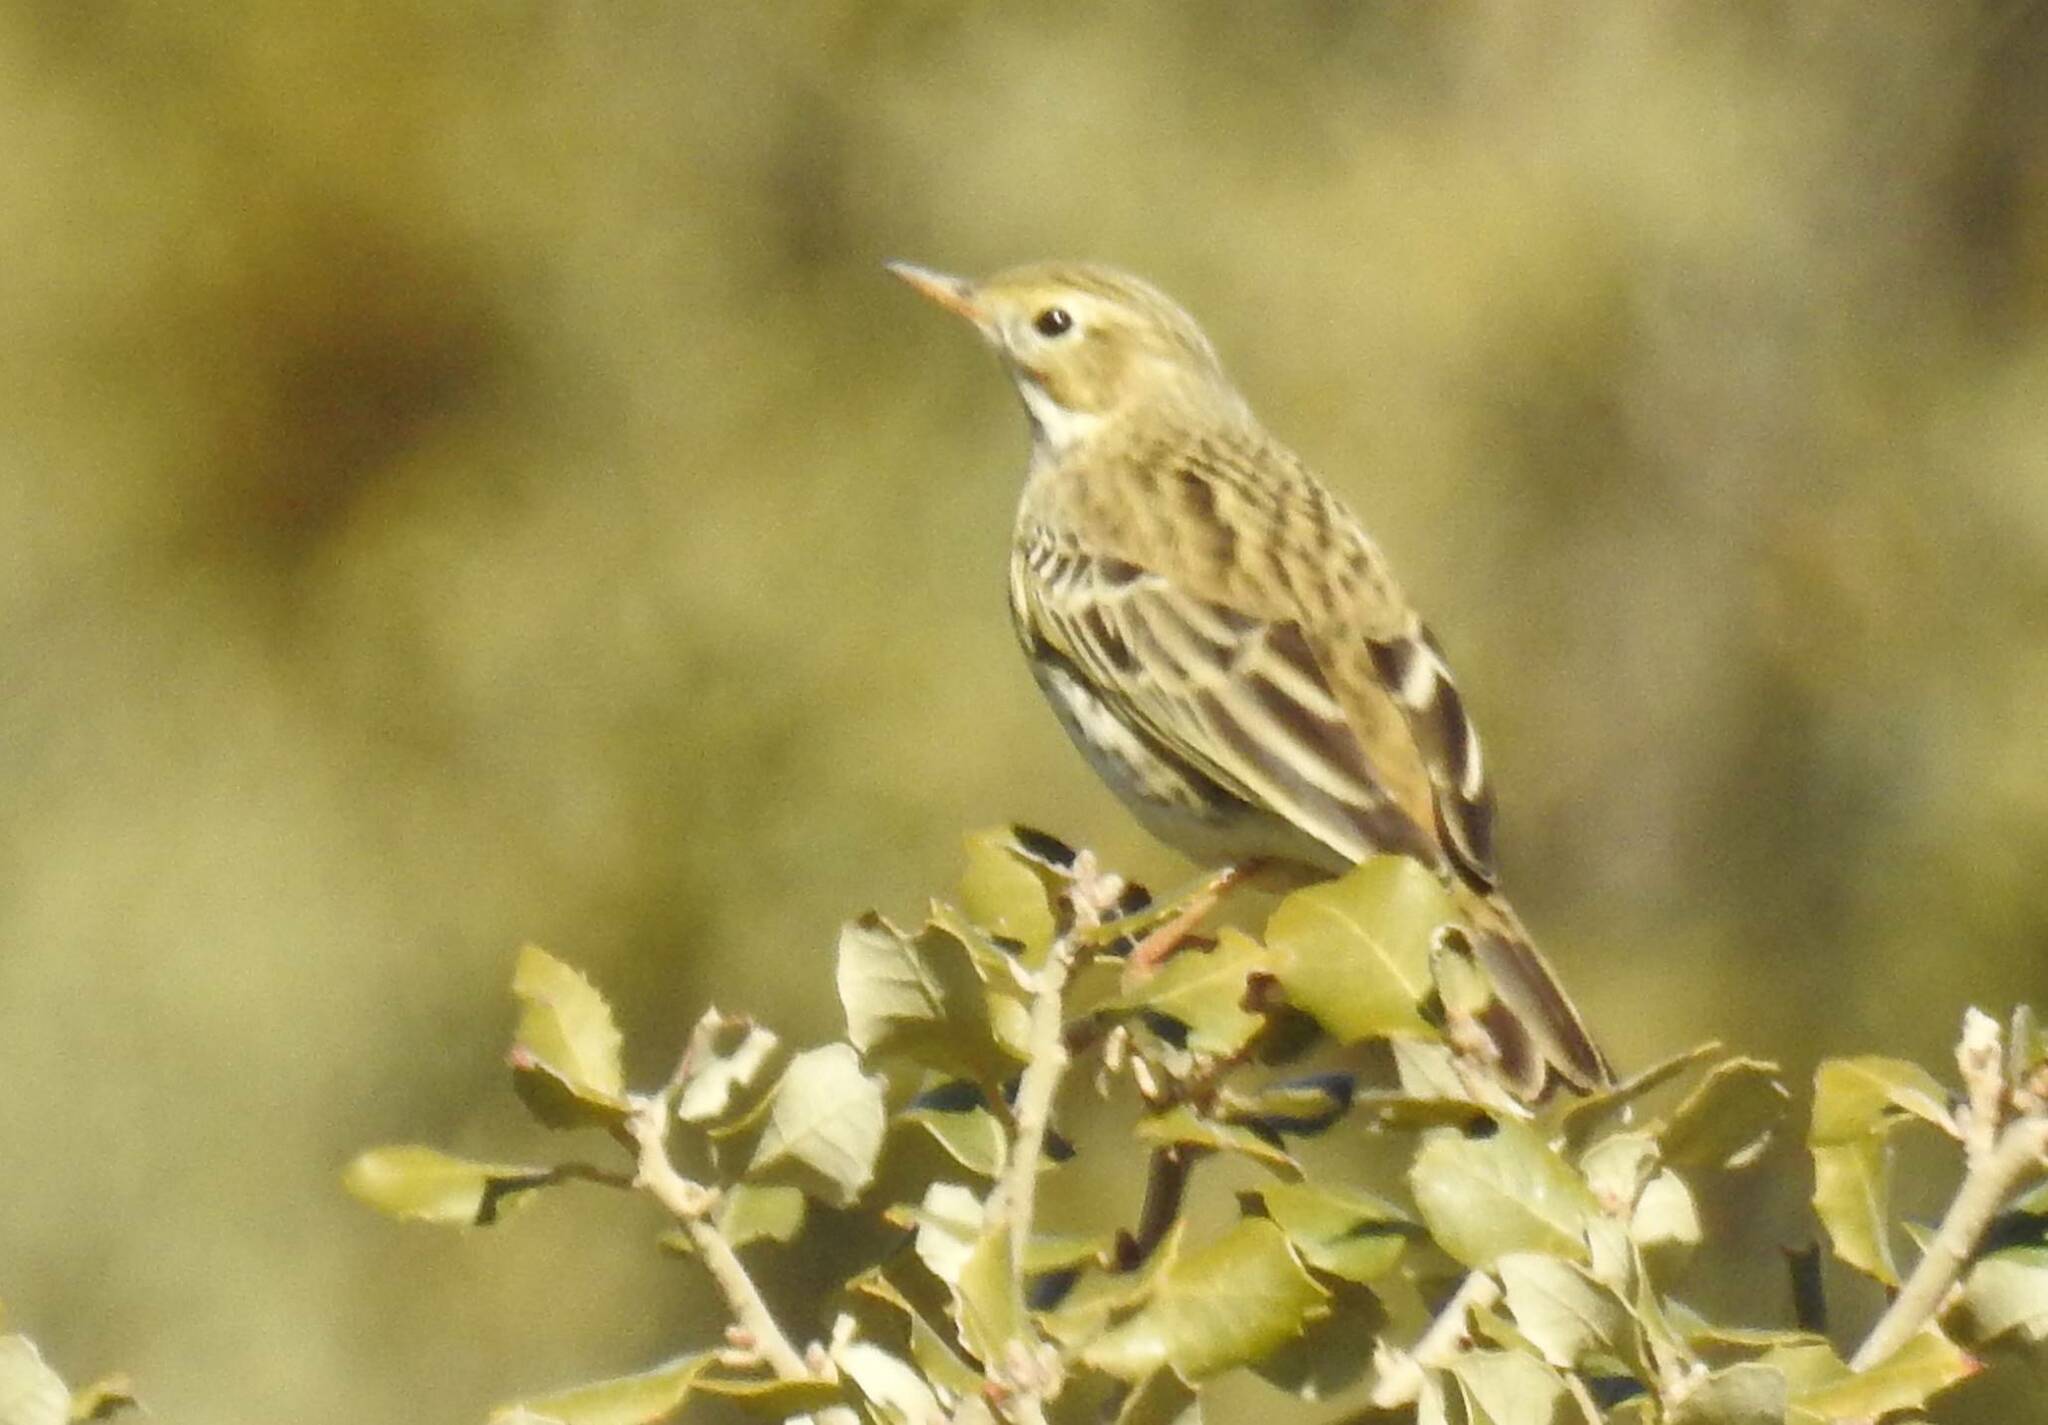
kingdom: Animalia
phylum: Chordata
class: Aves
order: Passeriformes
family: Motacillidae
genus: Anthus
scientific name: Anthus pratensis
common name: Meadow pipit
